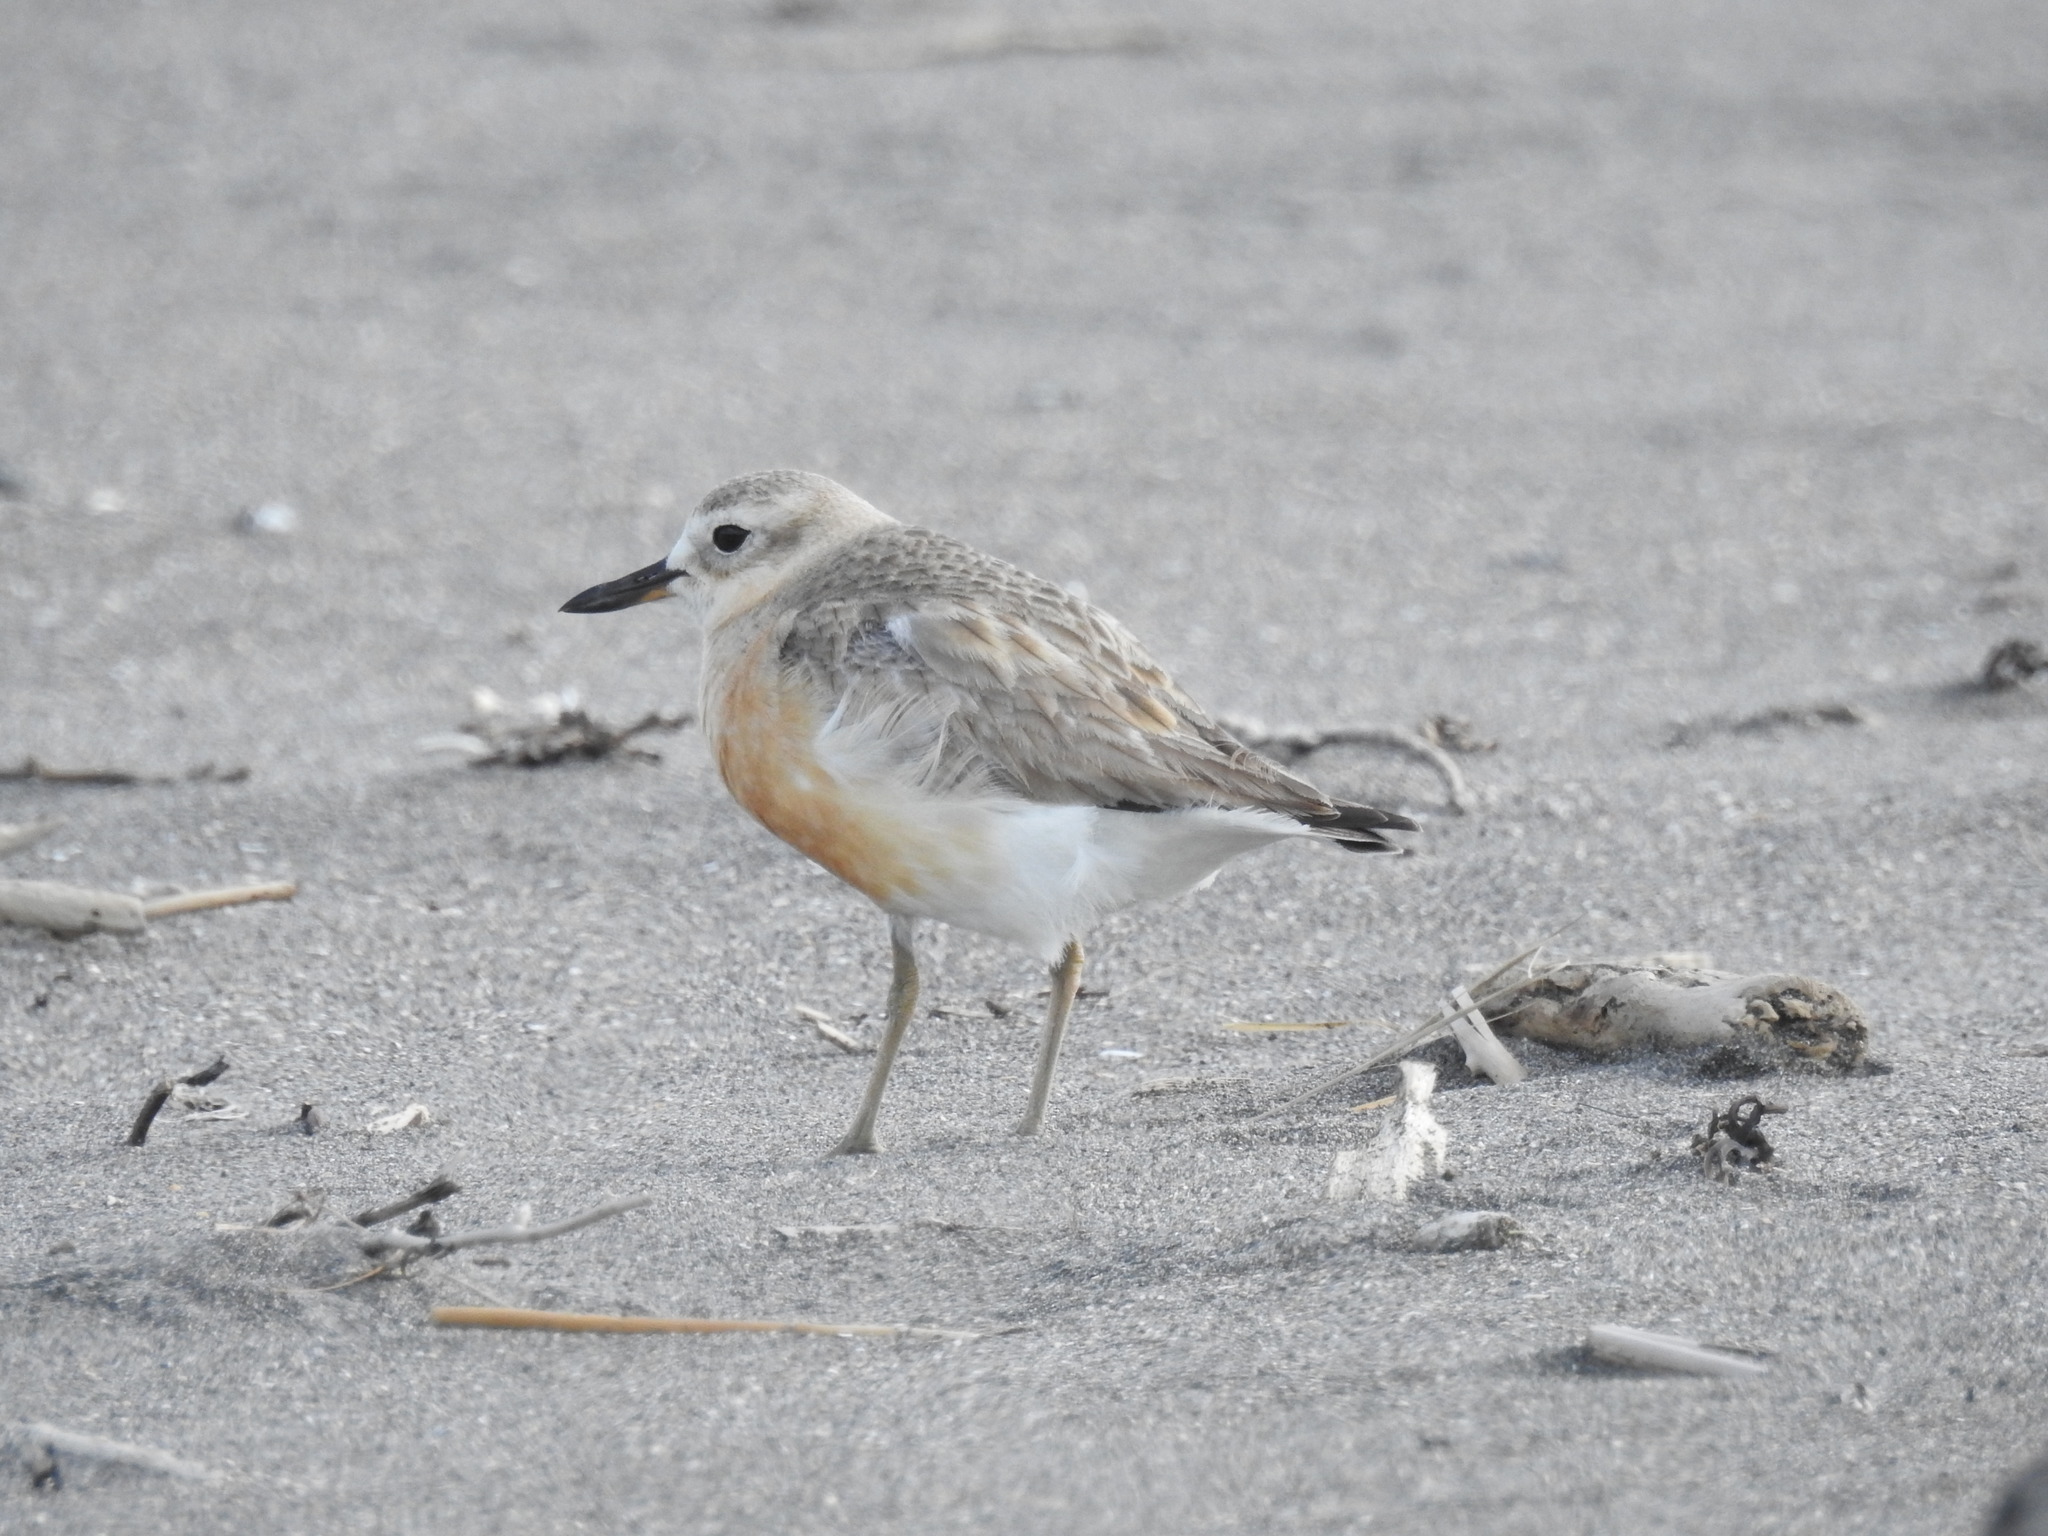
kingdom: Animalia
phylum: Chordata
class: Aves
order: Charadriiformes
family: Charadriidae
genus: Anarhynchus
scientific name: Anarhynchus
